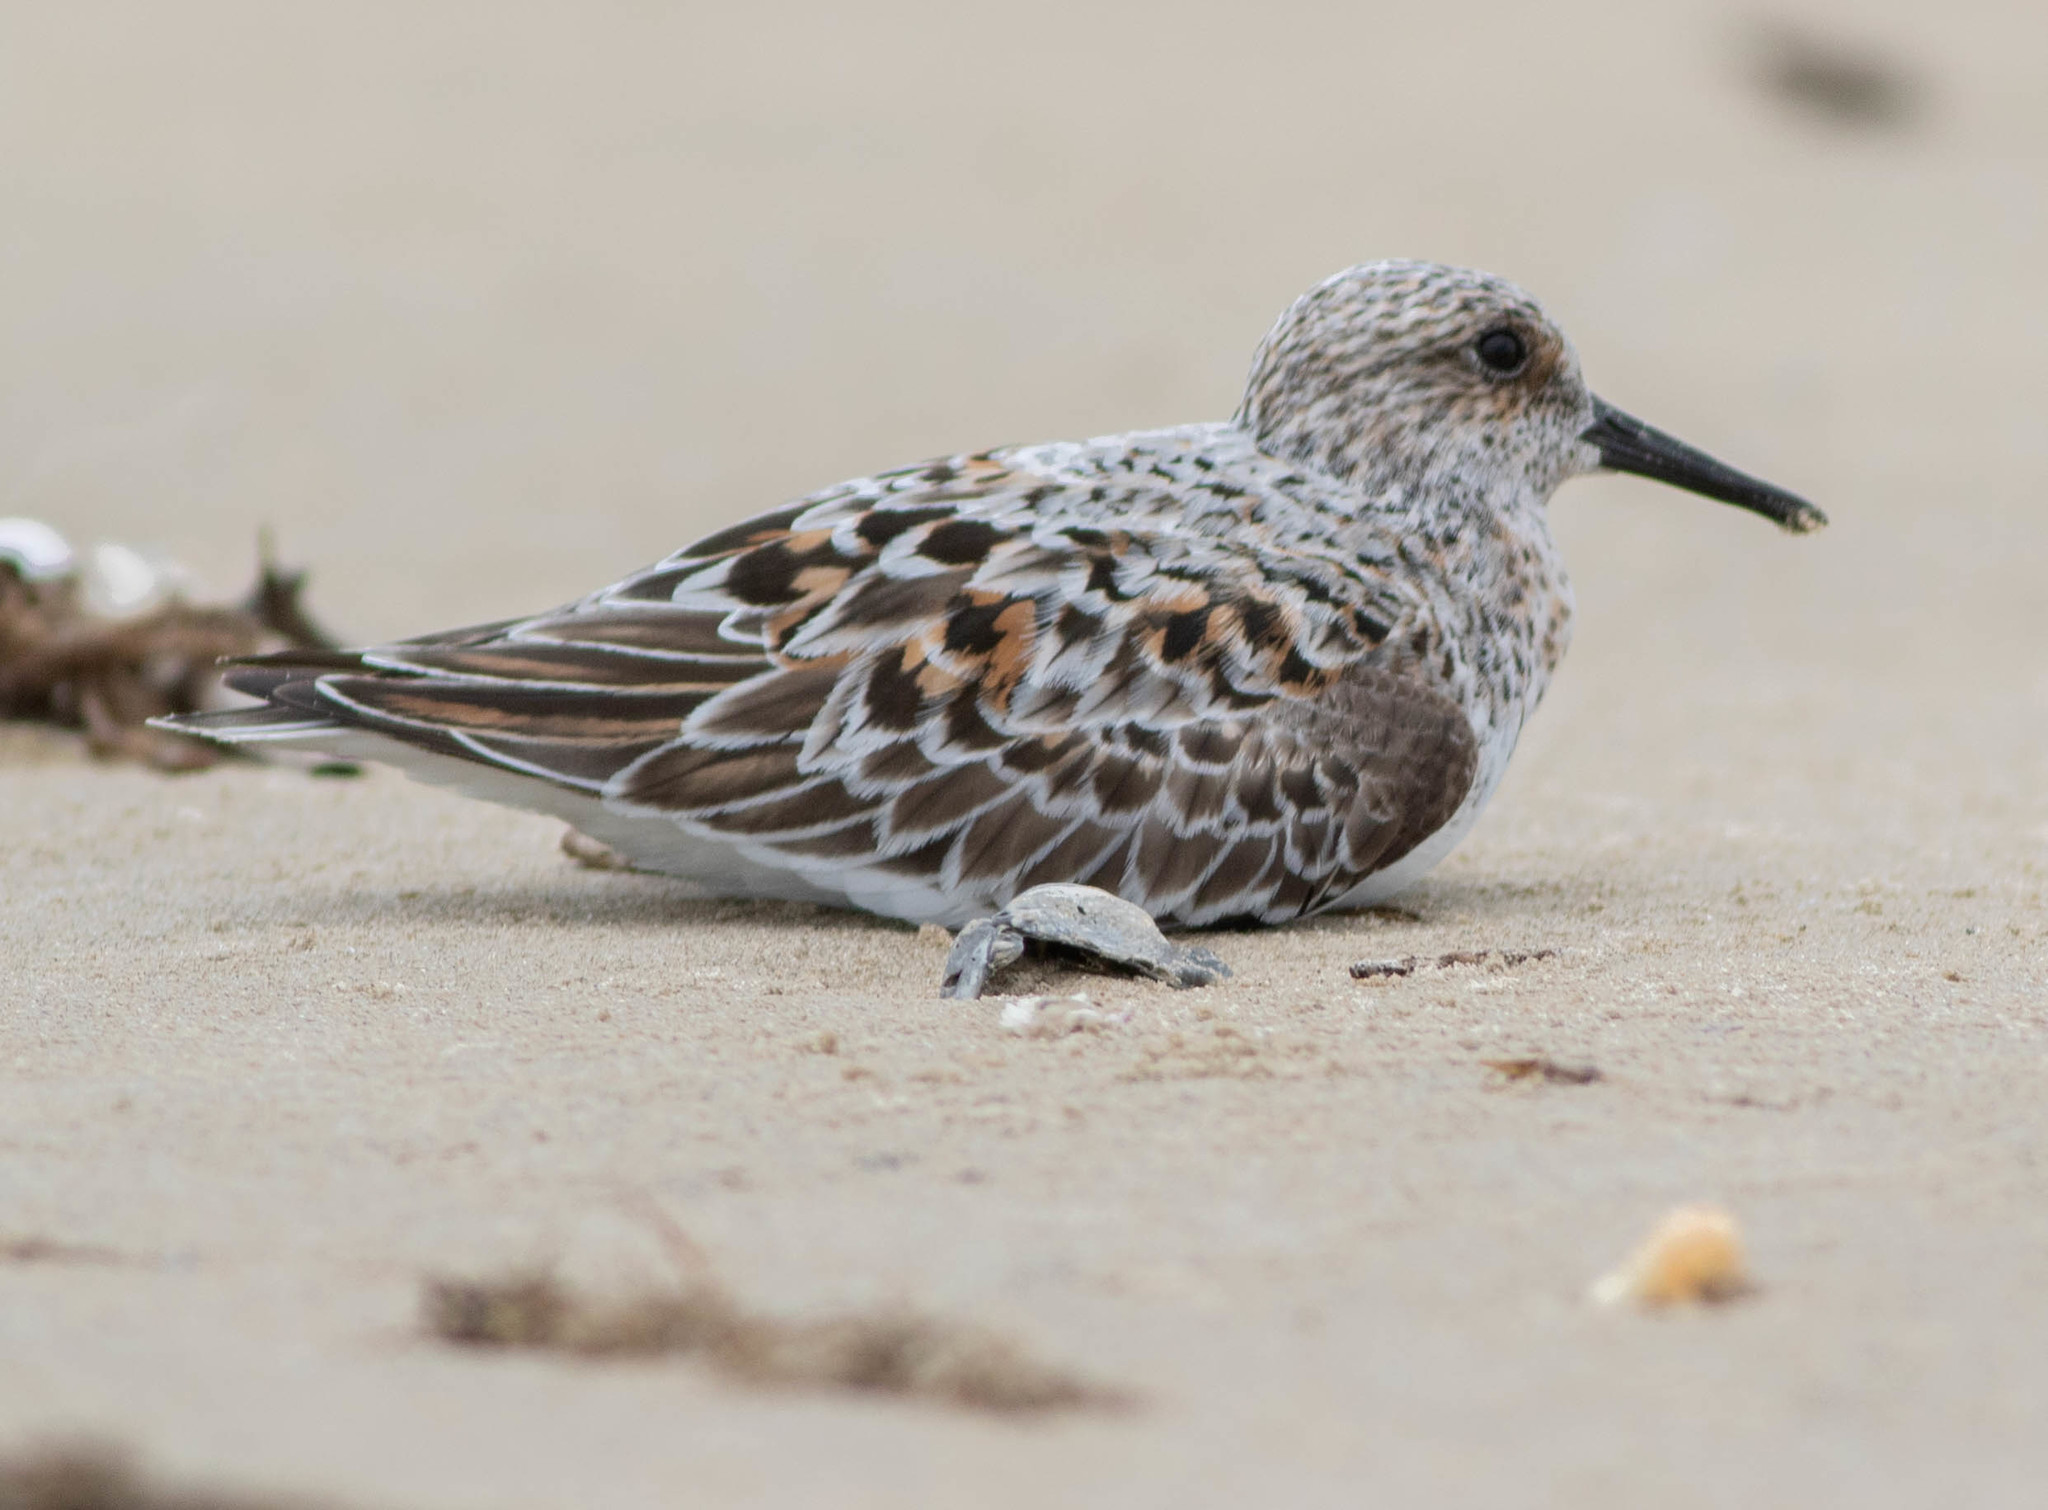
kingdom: Animalia
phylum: Chordata
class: Aves
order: Charadriiformes
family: Scolopacidae
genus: Calidris
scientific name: Calidris alba
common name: Sanderling
